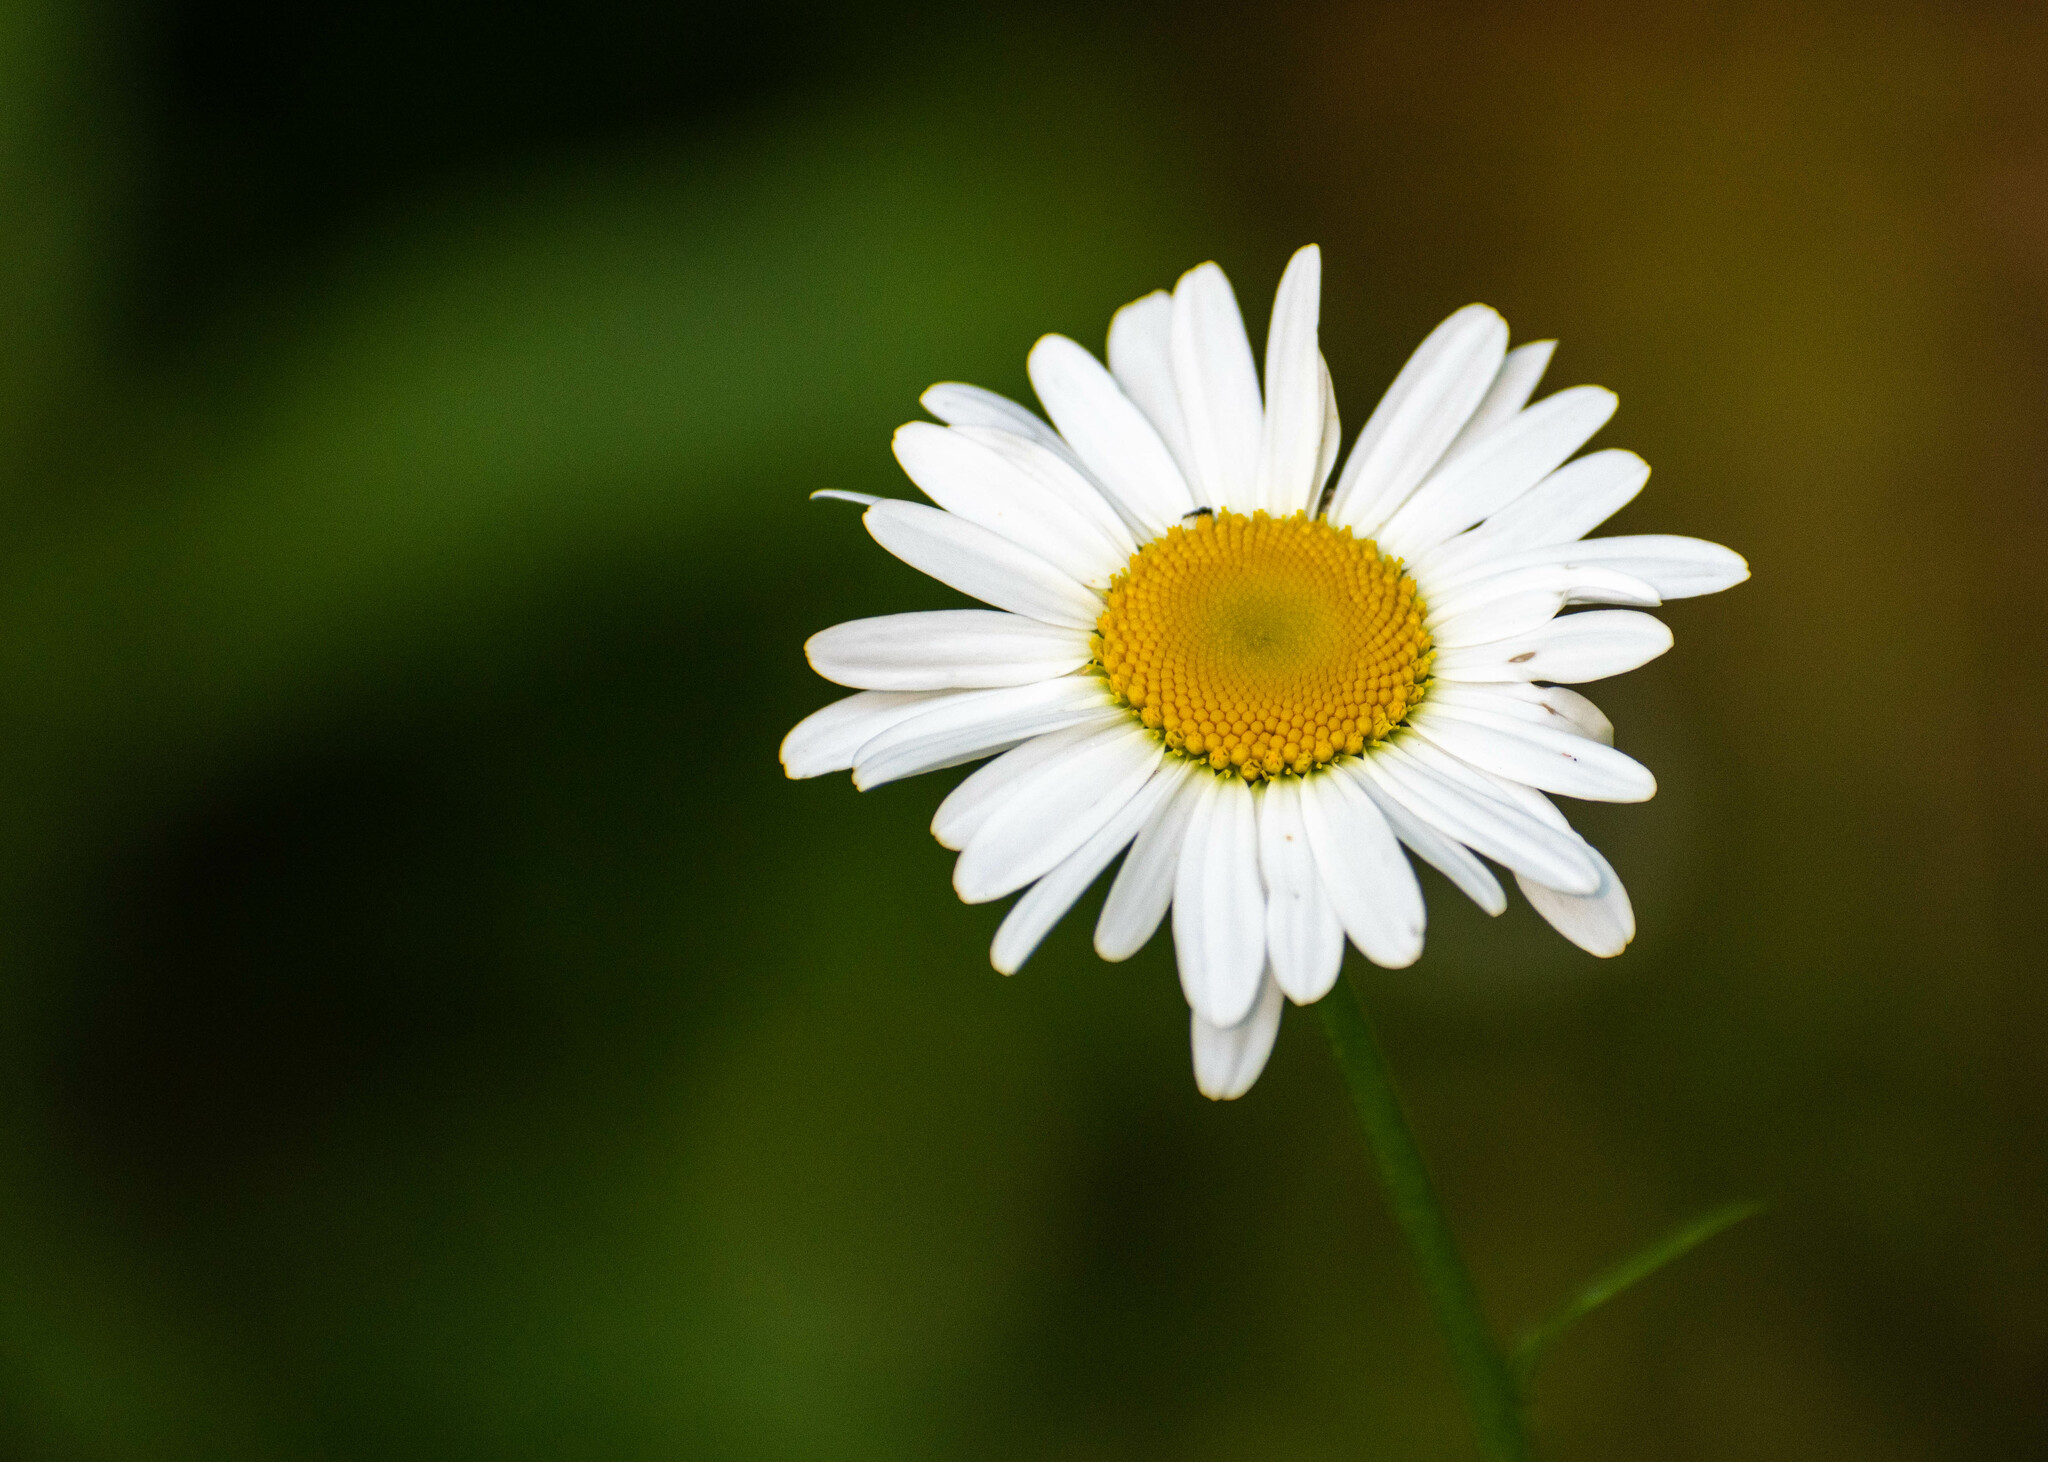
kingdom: Plantae
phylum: Tracheophyta
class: Magnoliopsida
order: Asterales
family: Asteraceae
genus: Leucanthemum
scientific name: Leucanthemum vulgare
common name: Oxeye daisy
